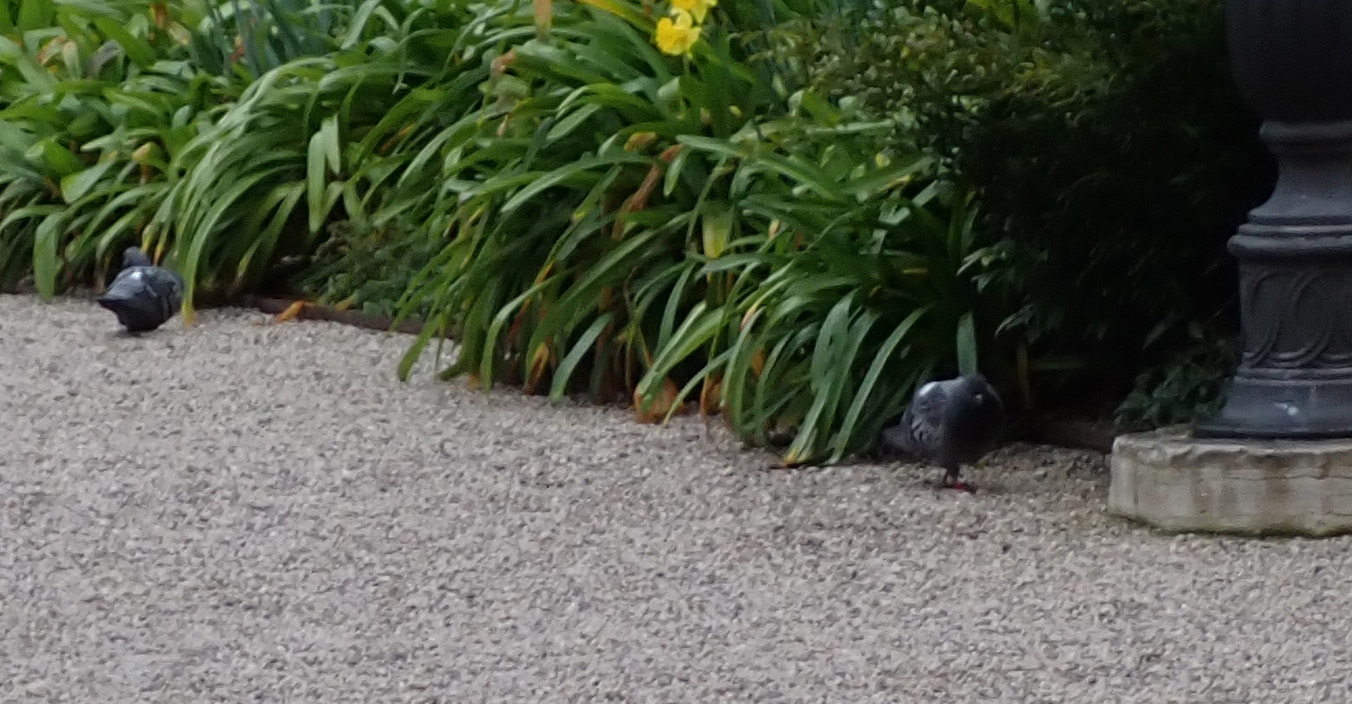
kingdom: Animalia
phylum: Chordata
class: Aves
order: Columbiformes
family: Columbidae
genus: Columba
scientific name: Columba livia
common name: Rock pigeon
